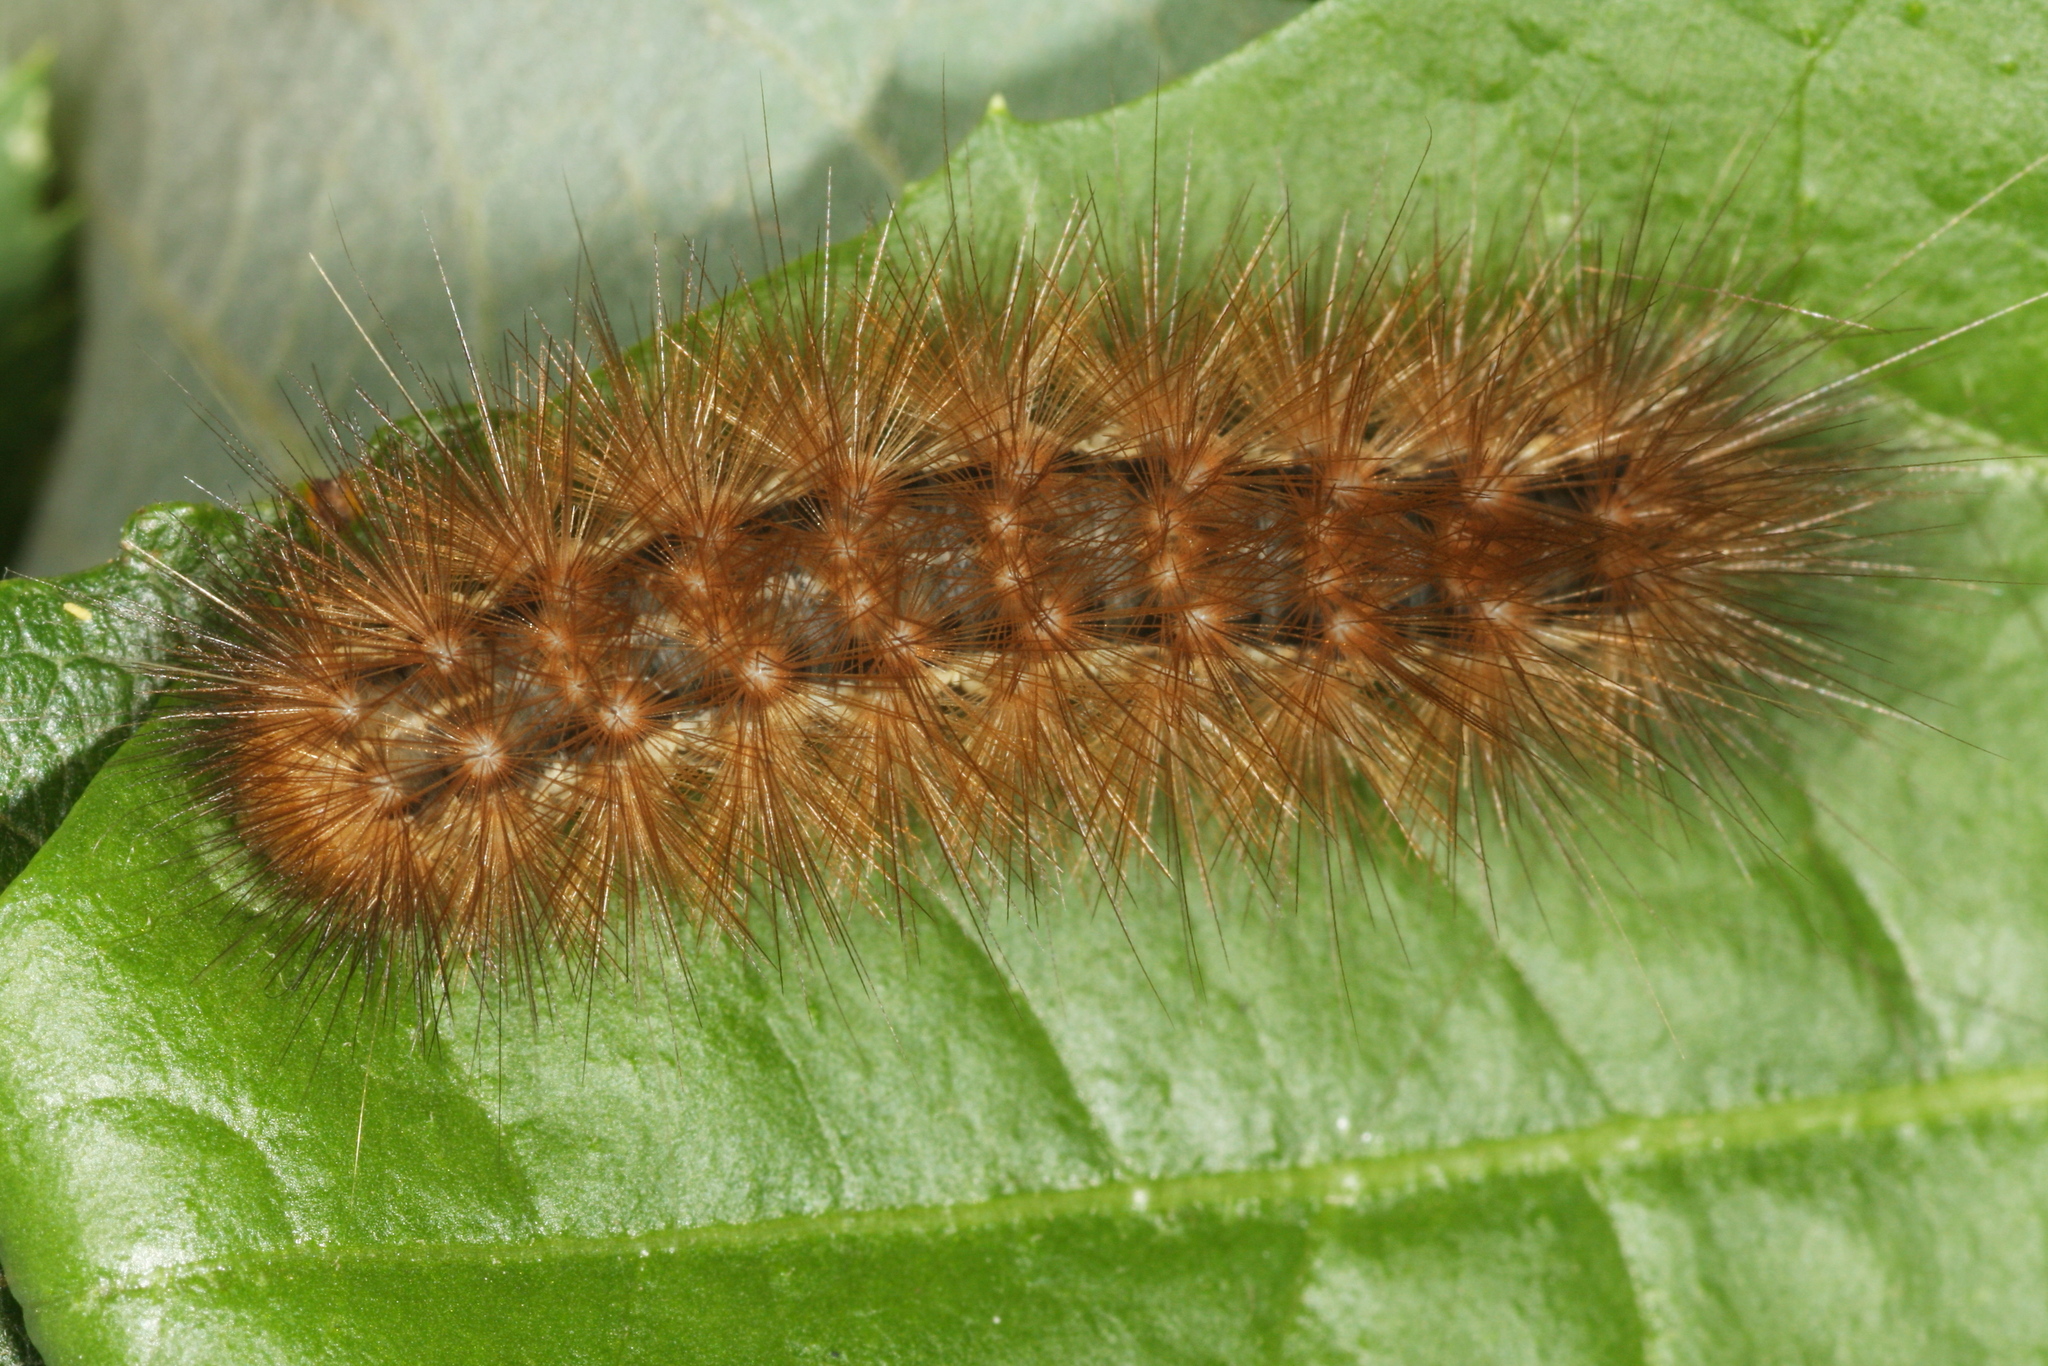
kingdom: Animalia
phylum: Arthropoda
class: Insecta
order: Lepidoptera
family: Erebidae
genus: Spilarctia
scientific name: Spilarctia lutea
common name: Buff ermine
